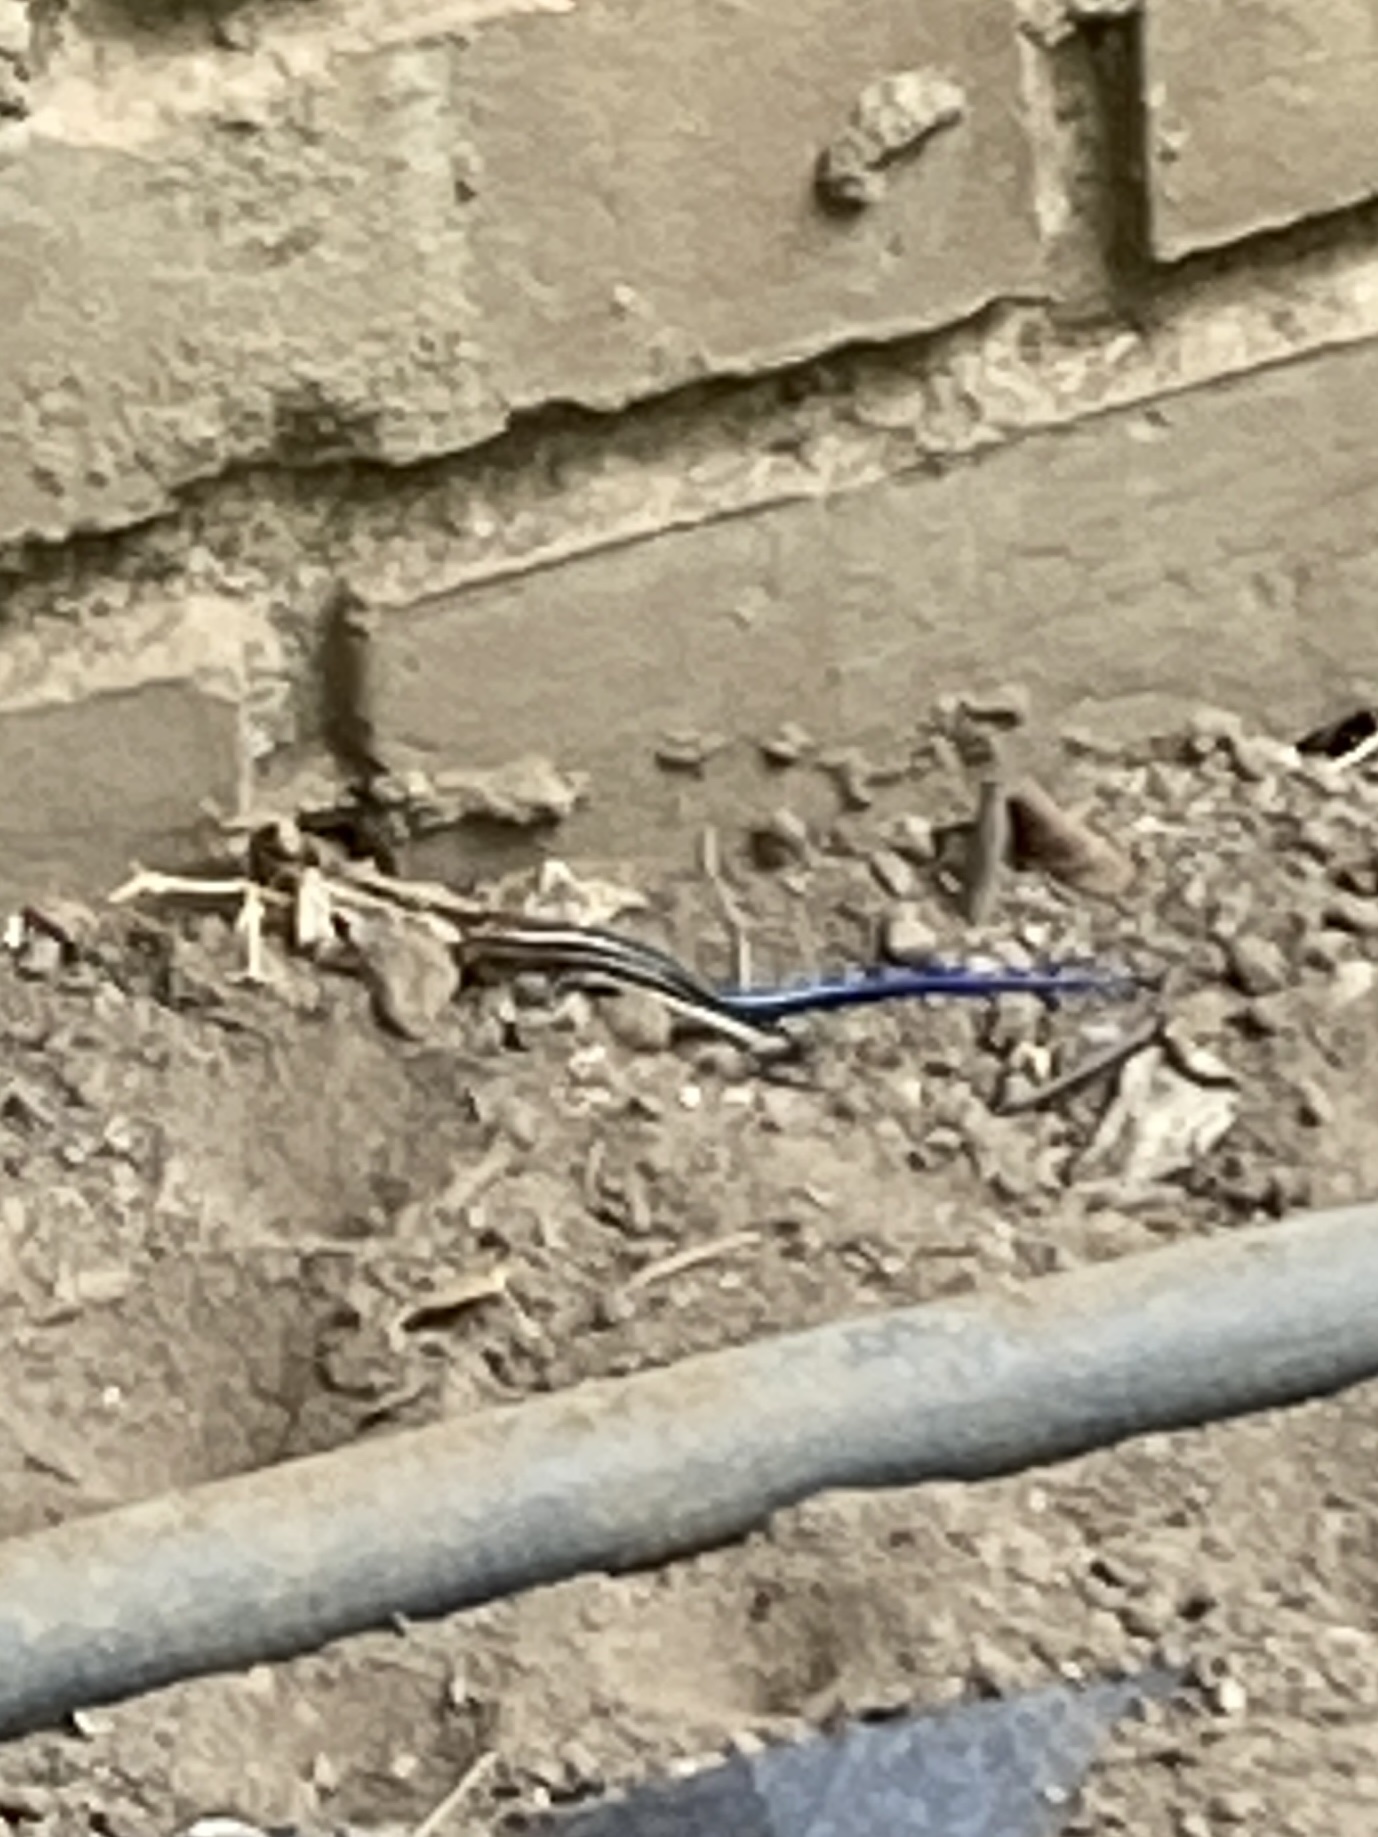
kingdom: Animalia
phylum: Chordata
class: Squamata
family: Scincidae
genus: Plestiodon
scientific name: Plestiodon fasciatus
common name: Five-lined skink
